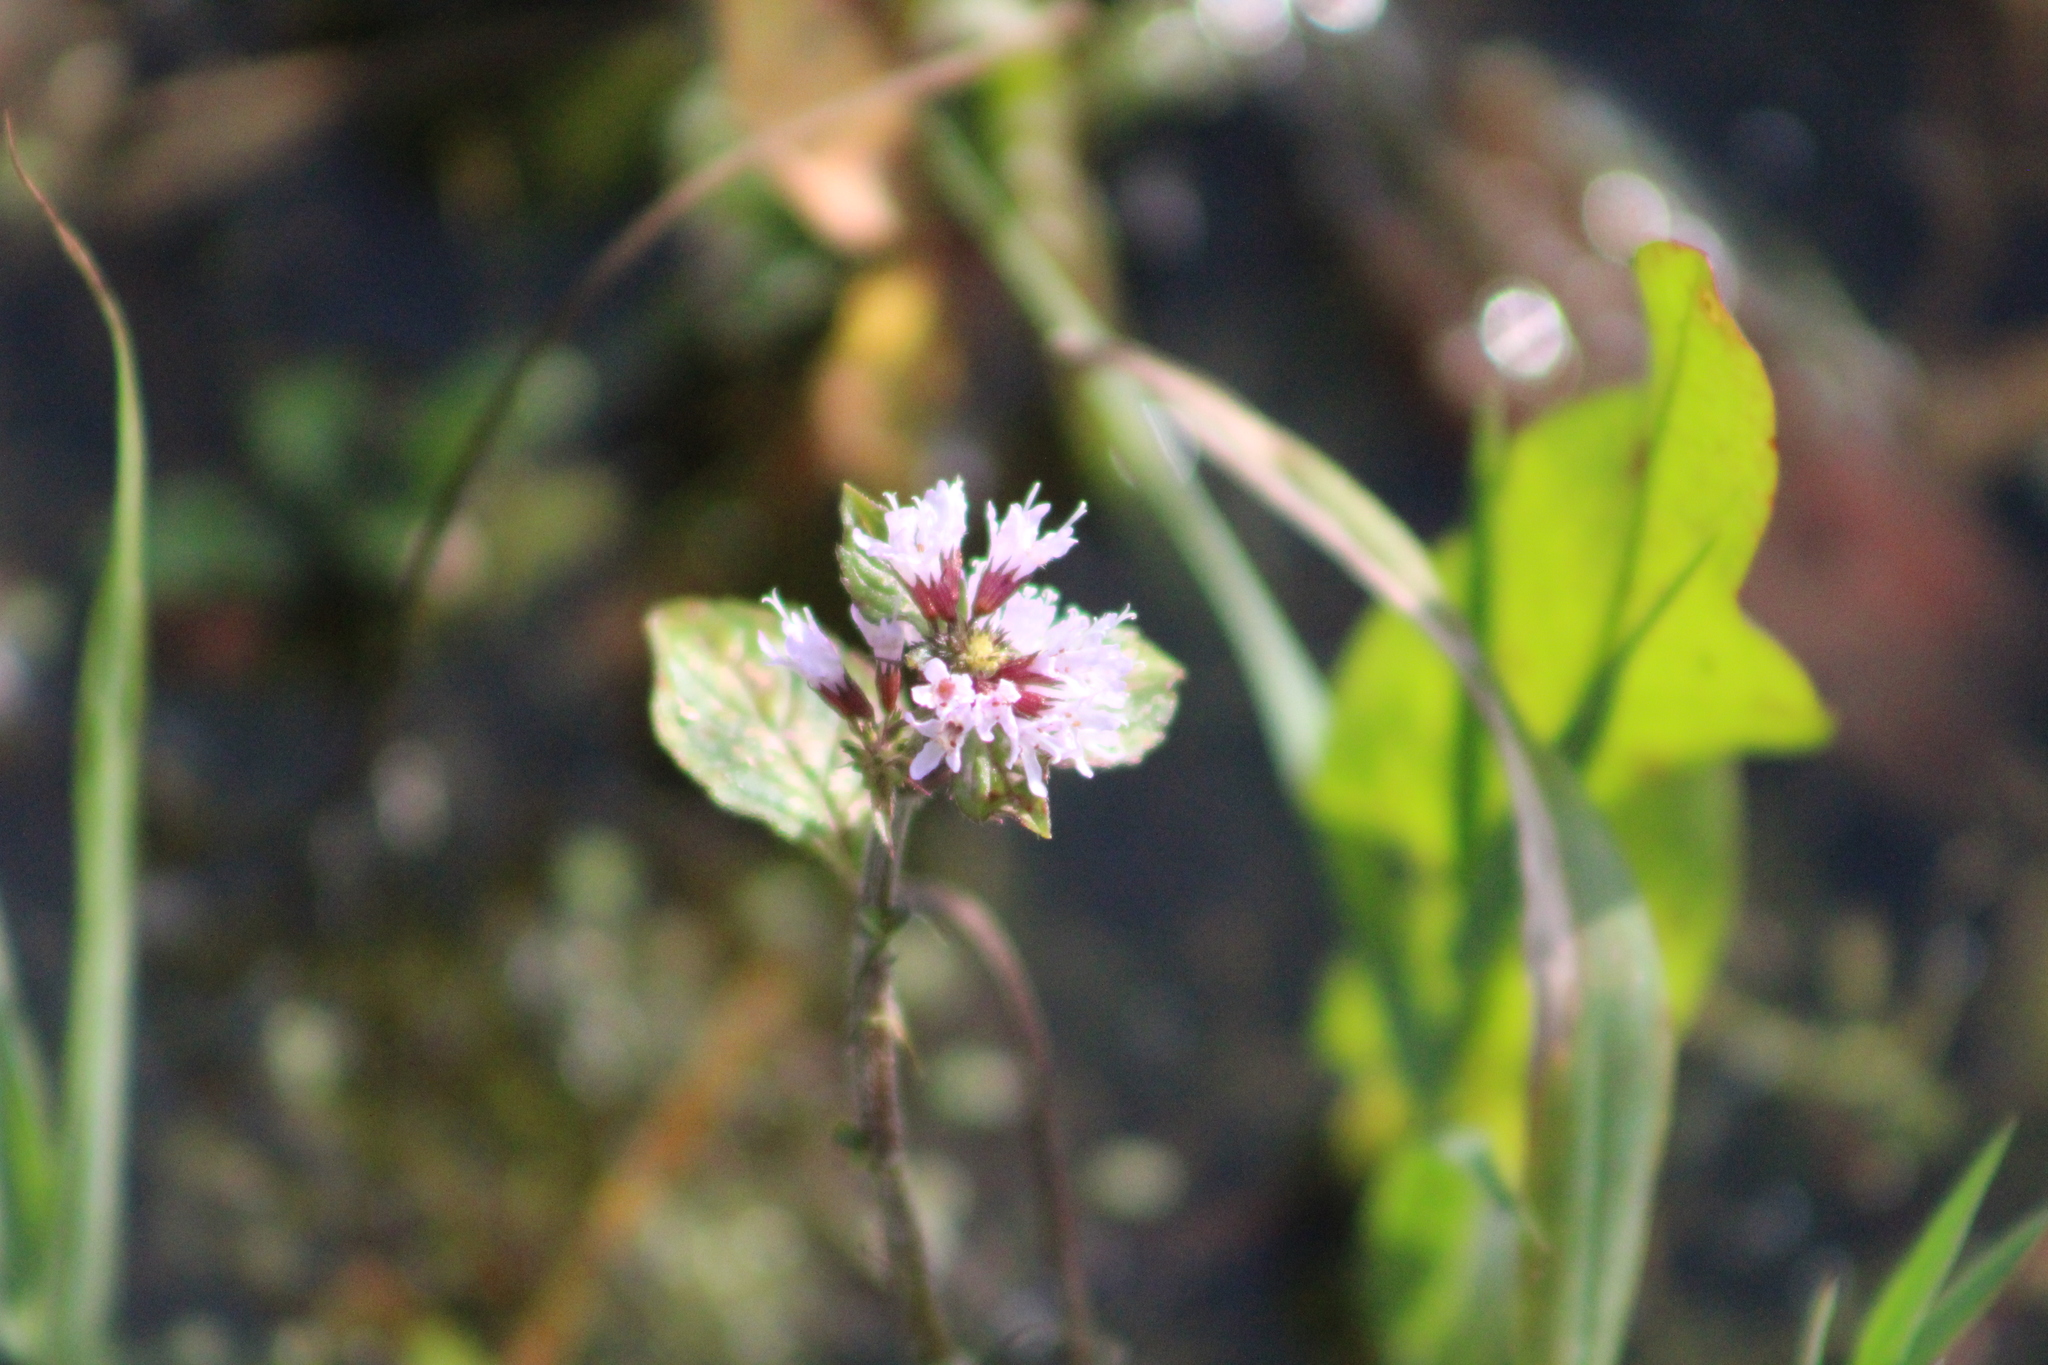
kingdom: Plantae
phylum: Tracheophyta
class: Magnoliopsida
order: Lamiales
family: Lamiaceae
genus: Mentha
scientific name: Mentha aquatica
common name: Water mint
